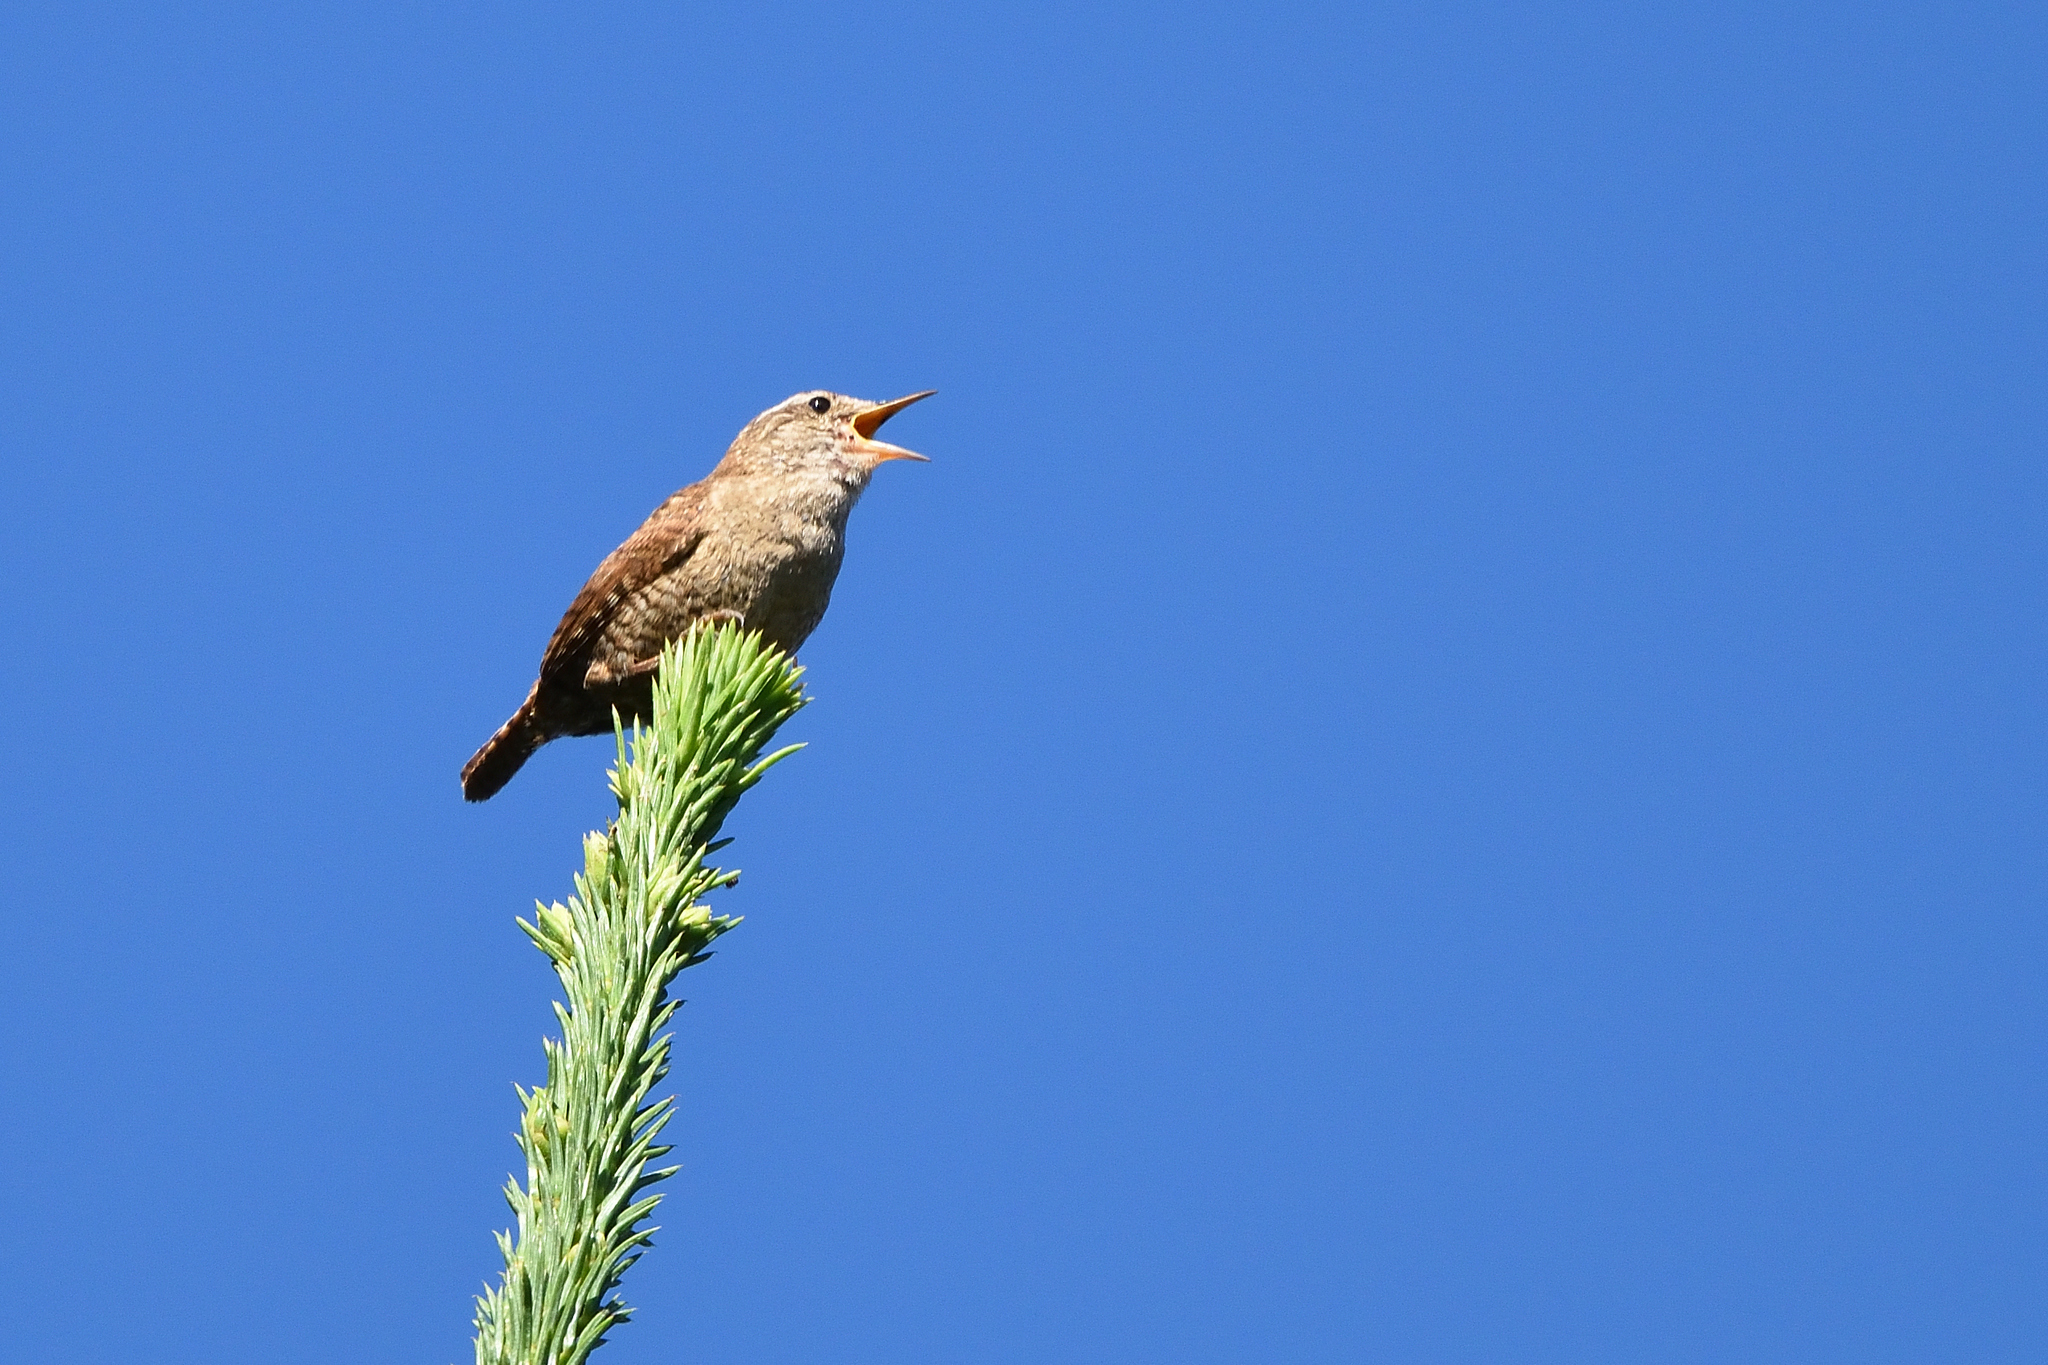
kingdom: Animalia
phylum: Chordata
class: Aves
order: Passeriformes
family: Troglodytidae
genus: Troglodytes
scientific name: Troglodytes troglodytes
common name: Eurasian wren
